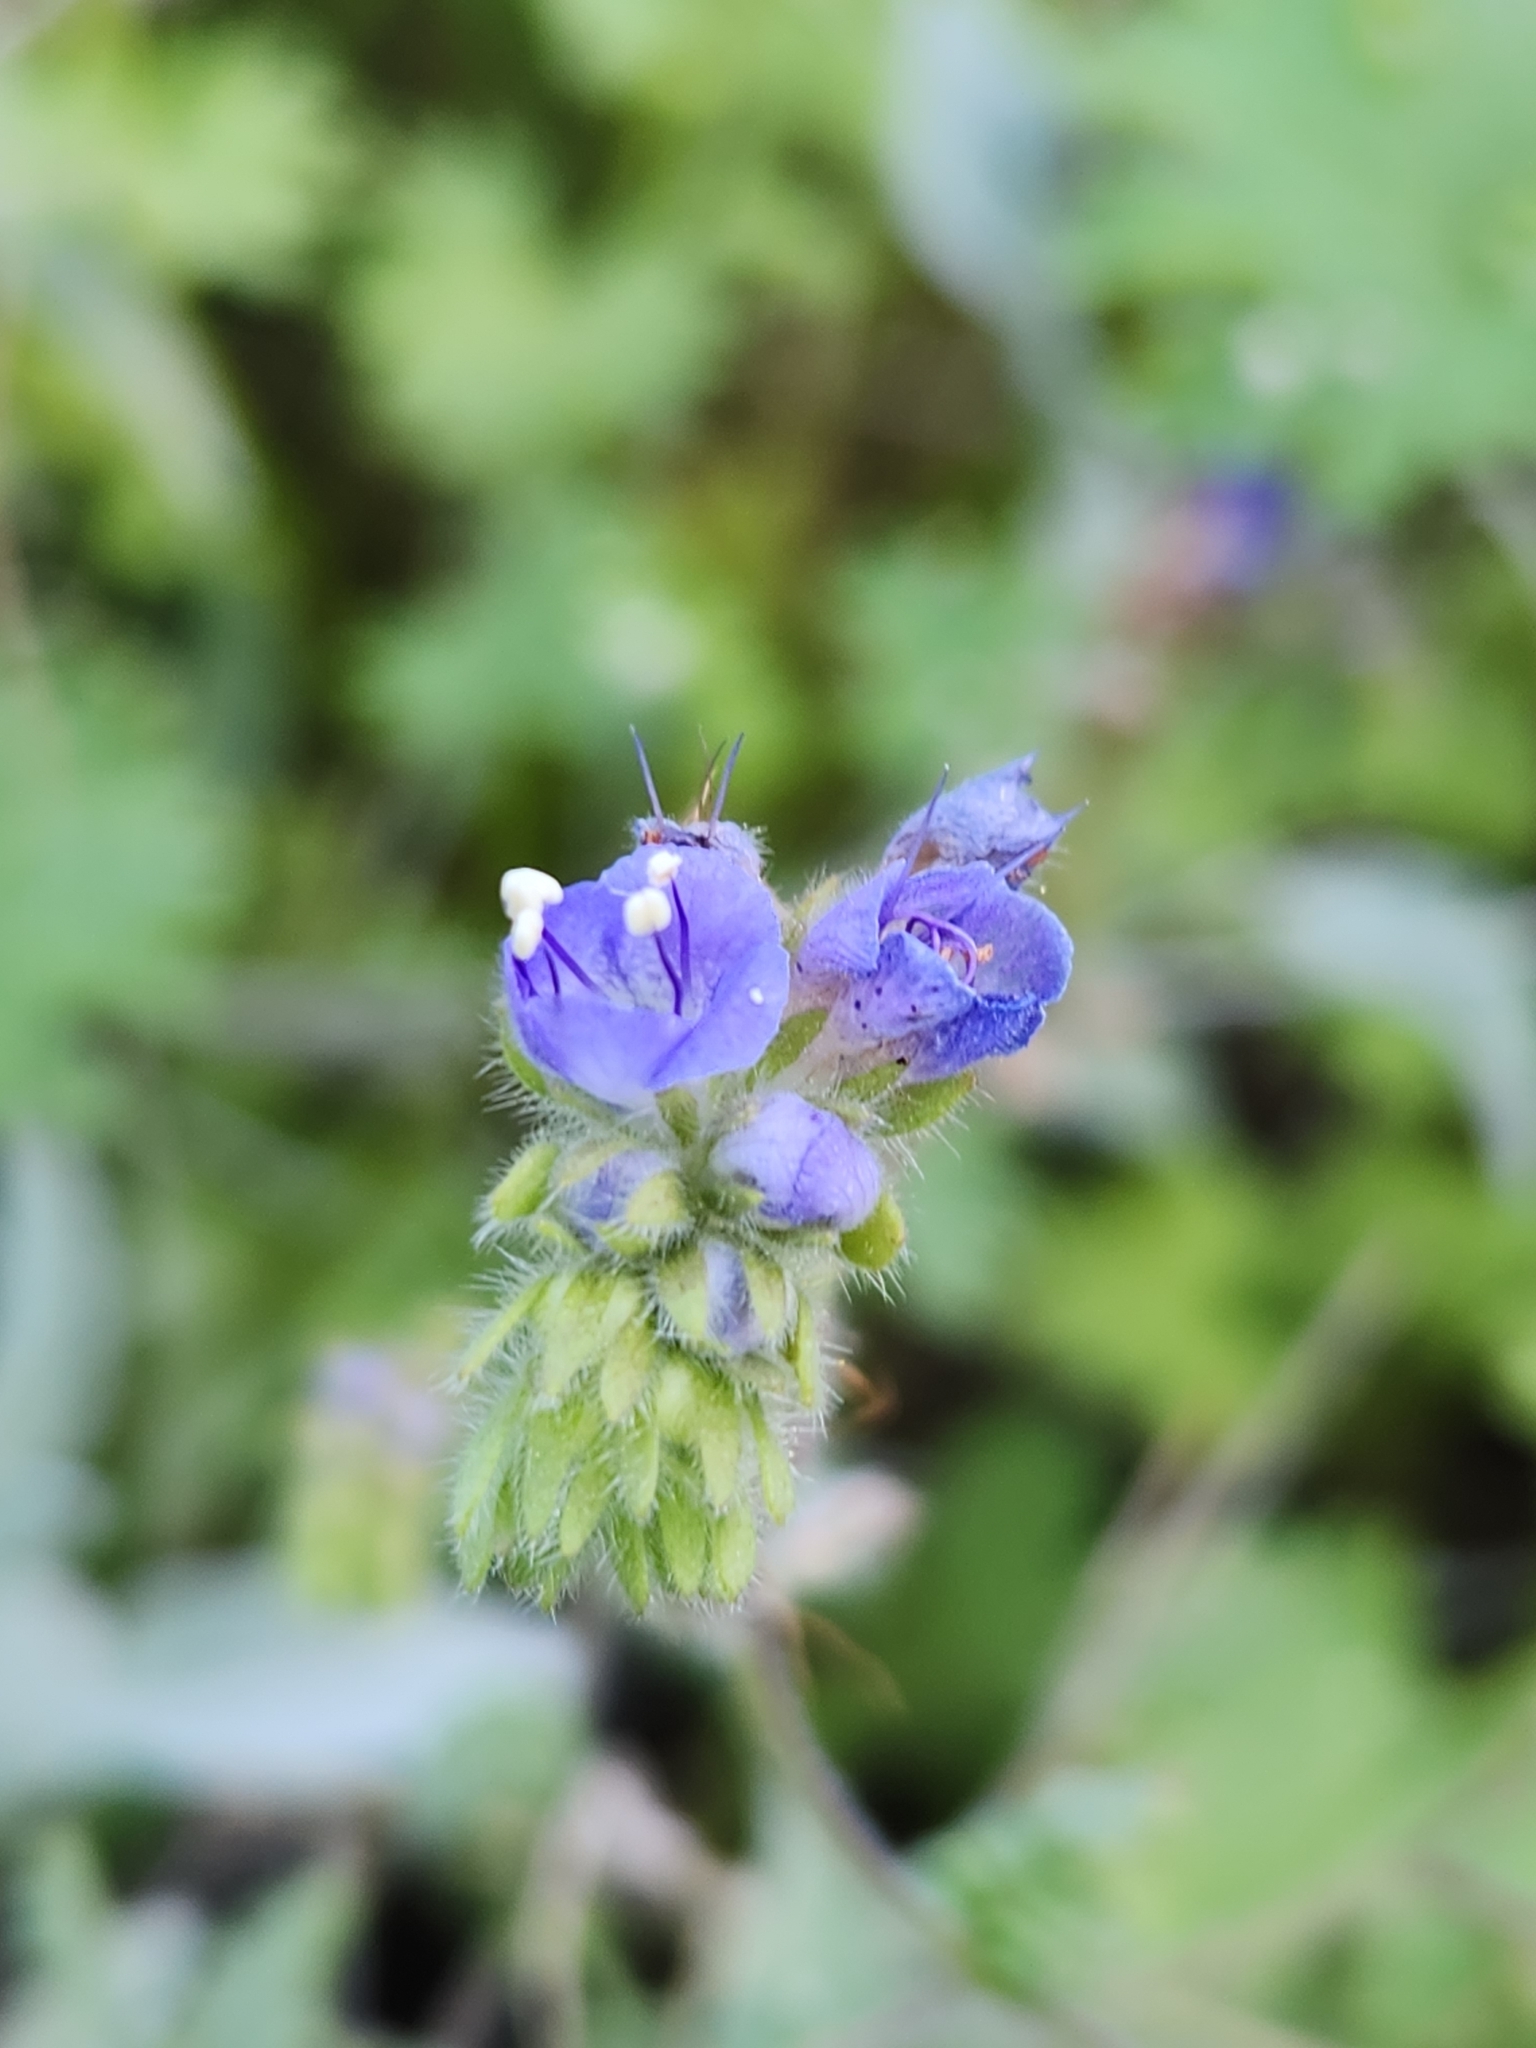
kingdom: Plantae
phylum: Tracheophyta
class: Magnoliopsida
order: Boraginales
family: Hydrophyllaceae
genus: Phacelia
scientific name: Phacelia distans
